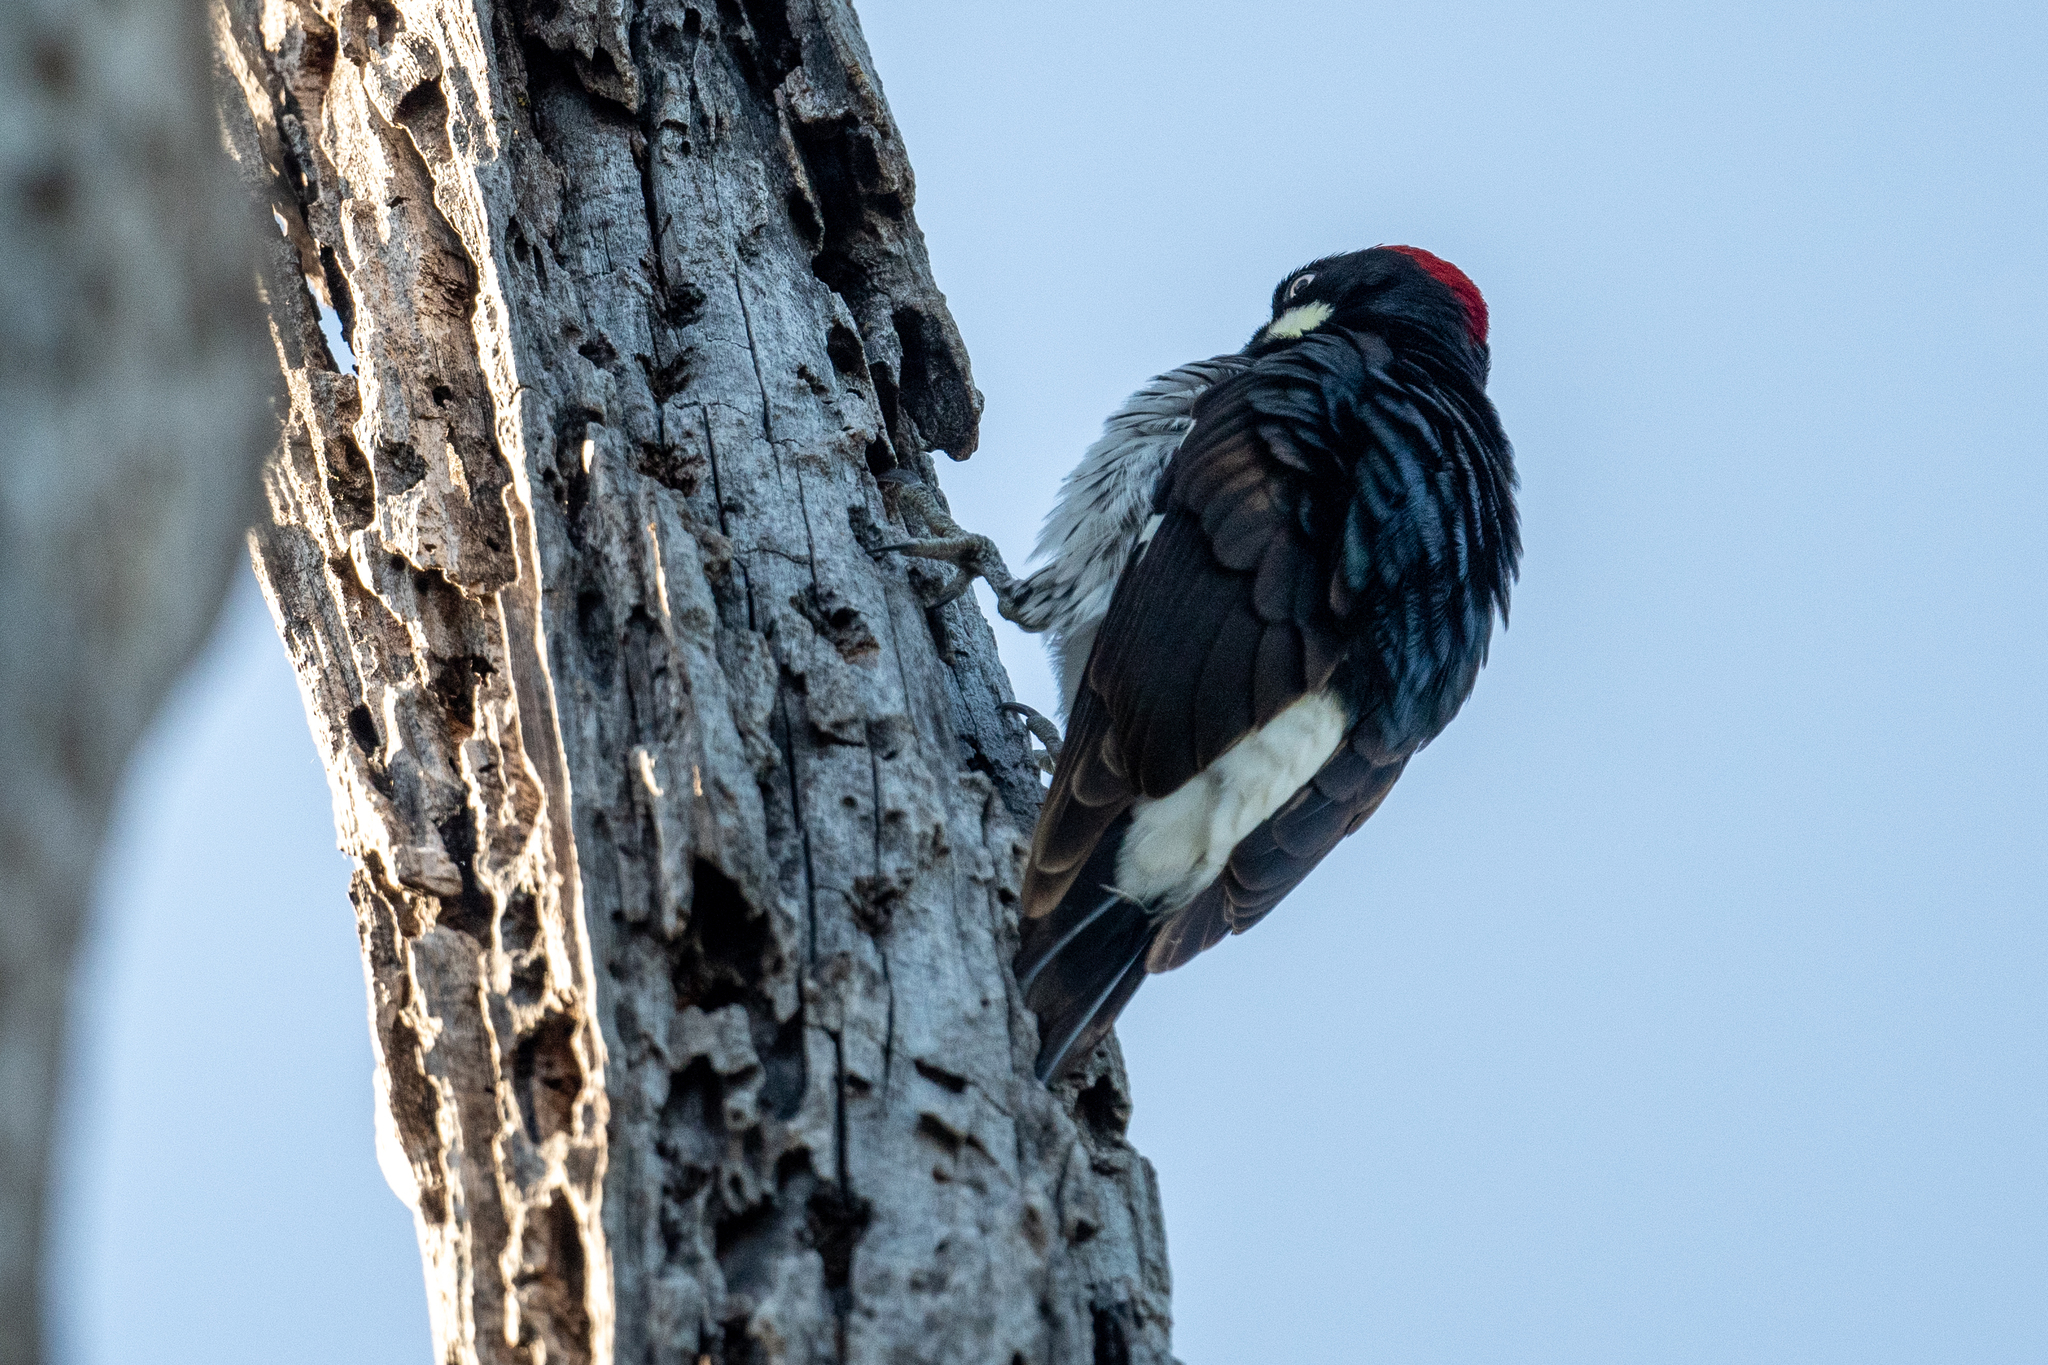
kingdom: Animalia
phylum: Chordata
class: Aves
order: Piciformes
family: Picidae
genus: Melanerpes
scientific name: Melanerpes formicivorus
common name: Acorn woodpecker
